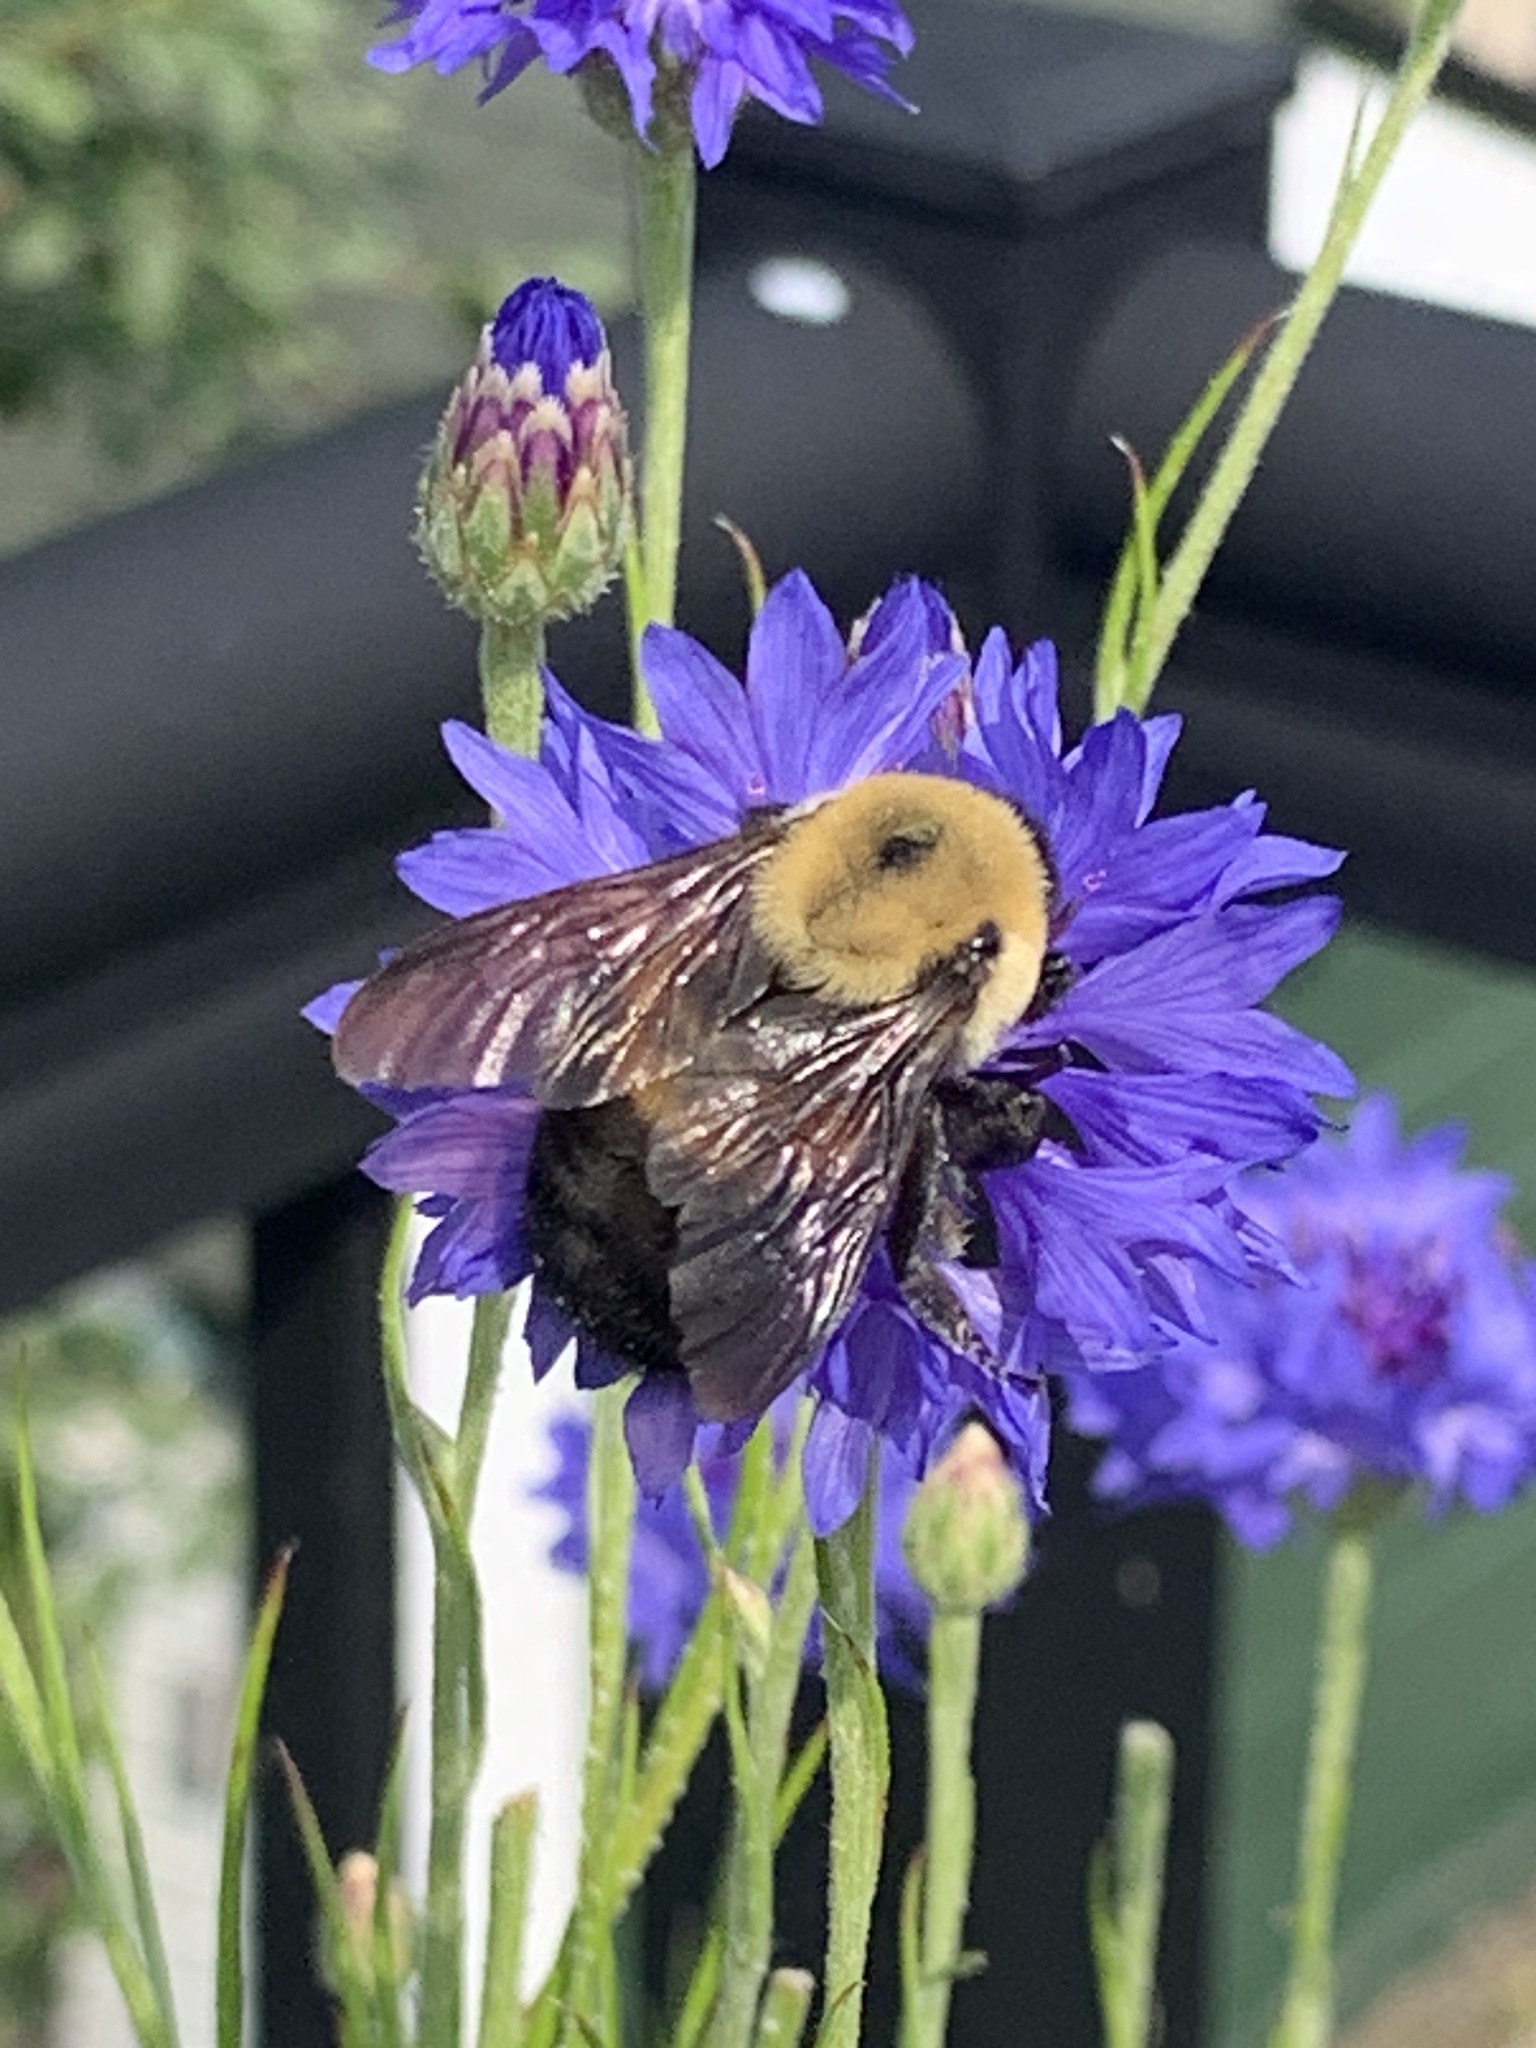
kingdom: Animalia
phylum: Arthropoda
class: Insecta
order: Hymenoptera
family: Apidae
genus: Bombus
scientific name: Bombus griseocollis
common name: Brown-belted bumble bee
